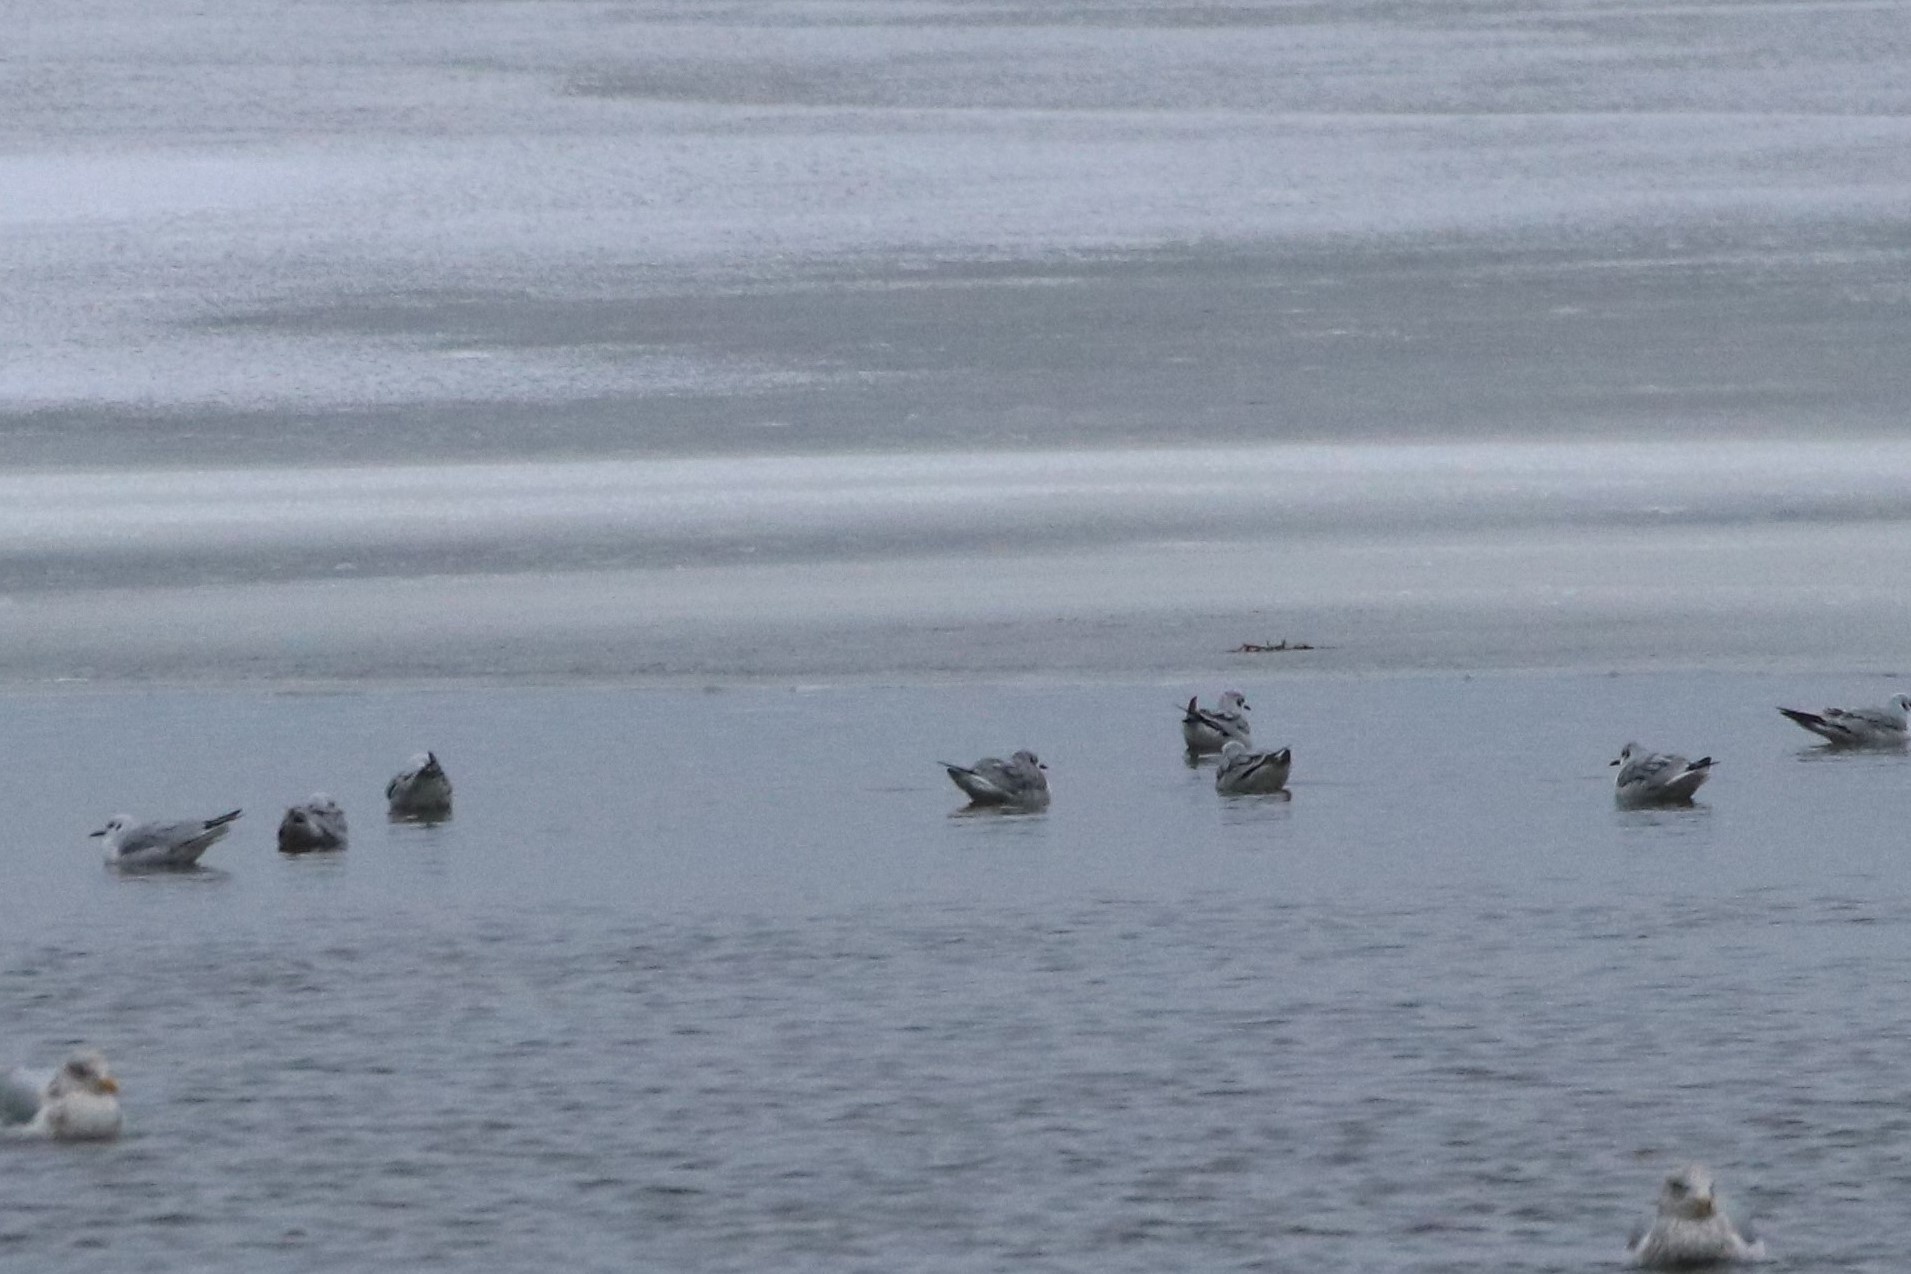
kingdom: Animalia
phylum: Chordata
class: Aves
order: Charadriiformes
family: Laridae
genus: Chroicocephalus
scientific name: Chroicocephalus philadelphia
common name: Bonaparte's gull
